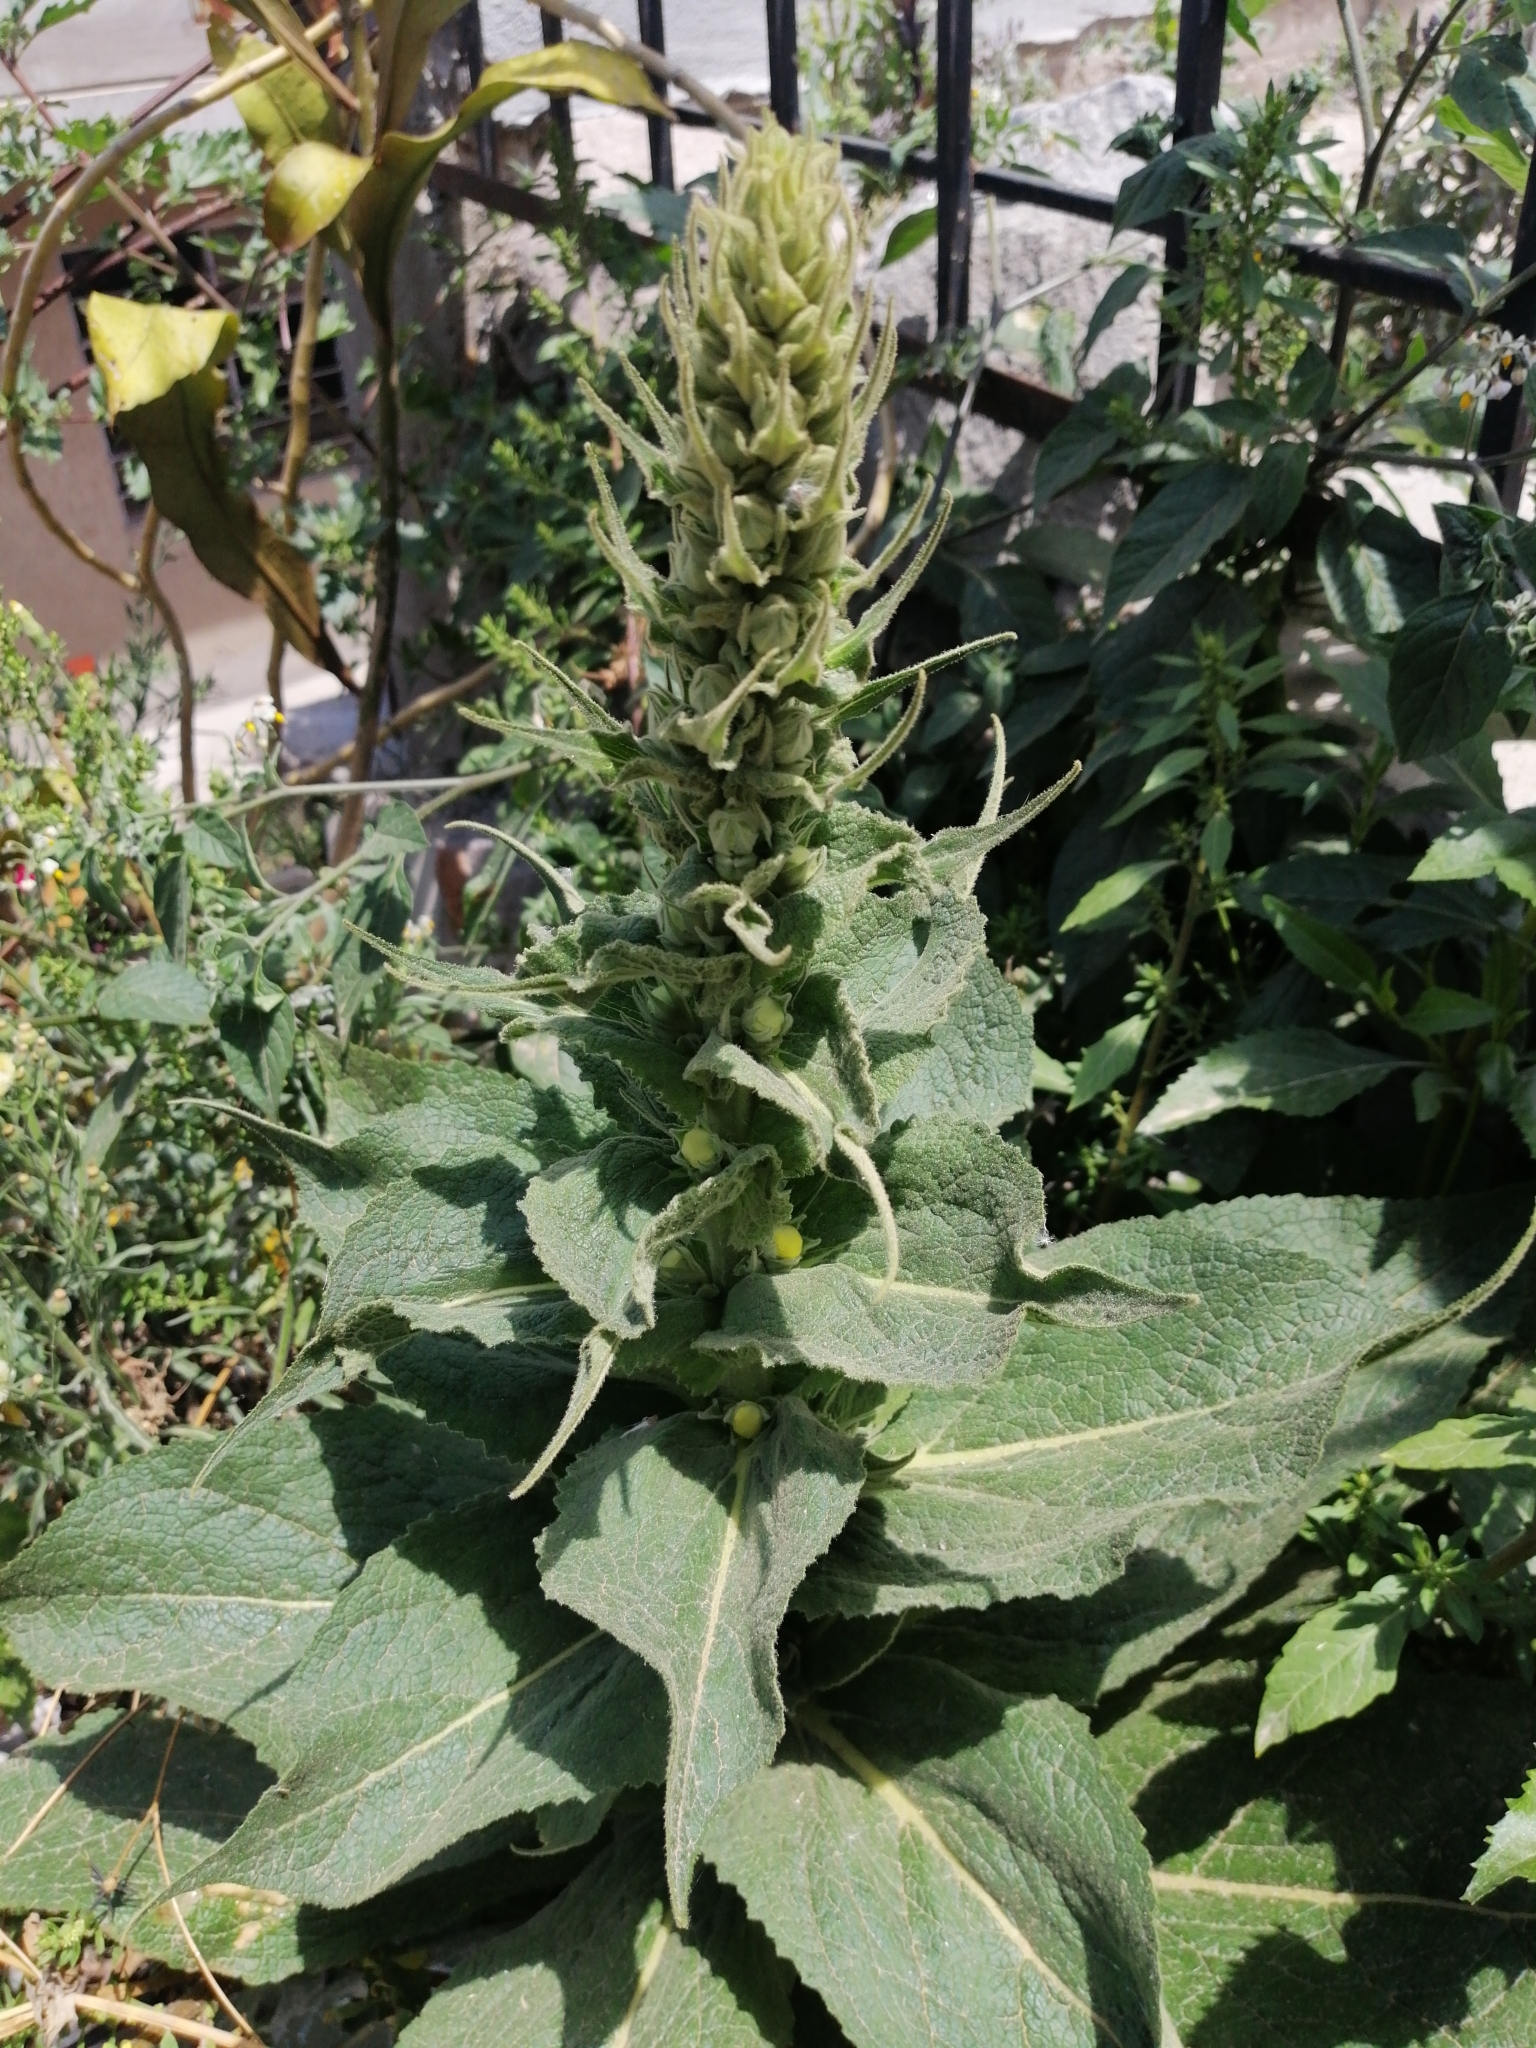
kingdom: Plantae
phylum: Tracheophyta
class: Magnoliopsida
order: Lamiales
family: Scrophulariaceae
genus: Verbascum
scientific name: Verbascum phlomoides
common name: Orange mullein
